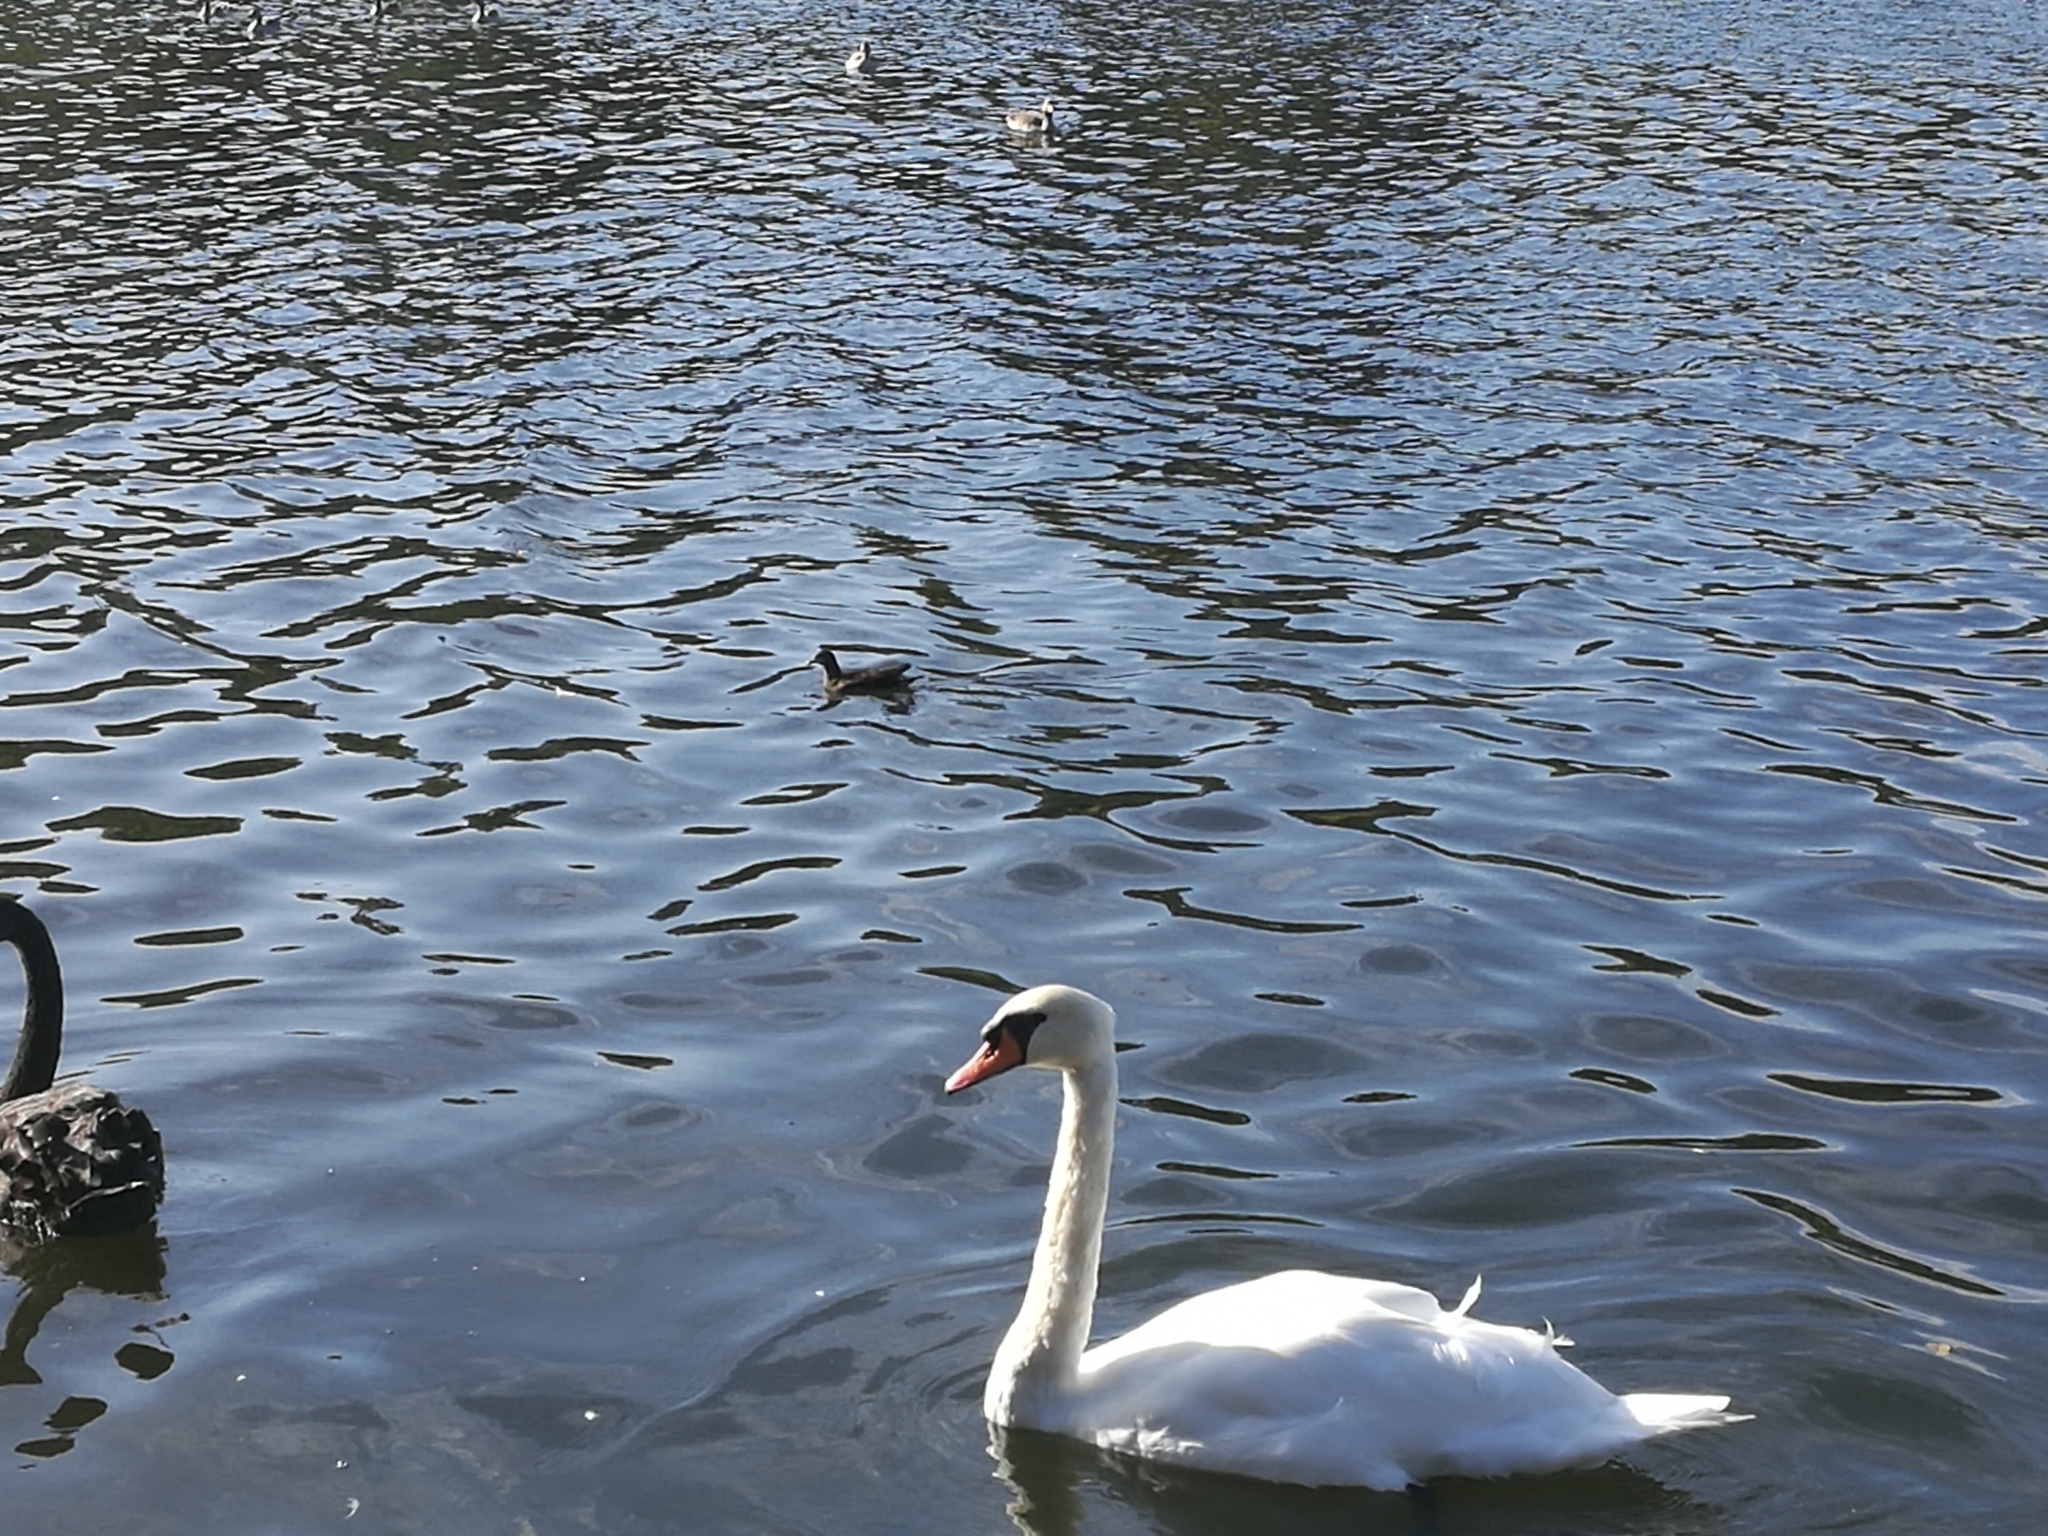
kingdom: Animalia
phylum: Chordata
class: Aves
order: Anseriformes
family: Anatidae
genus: Cygnus
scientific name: Cygnus olor
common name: Mute swan
